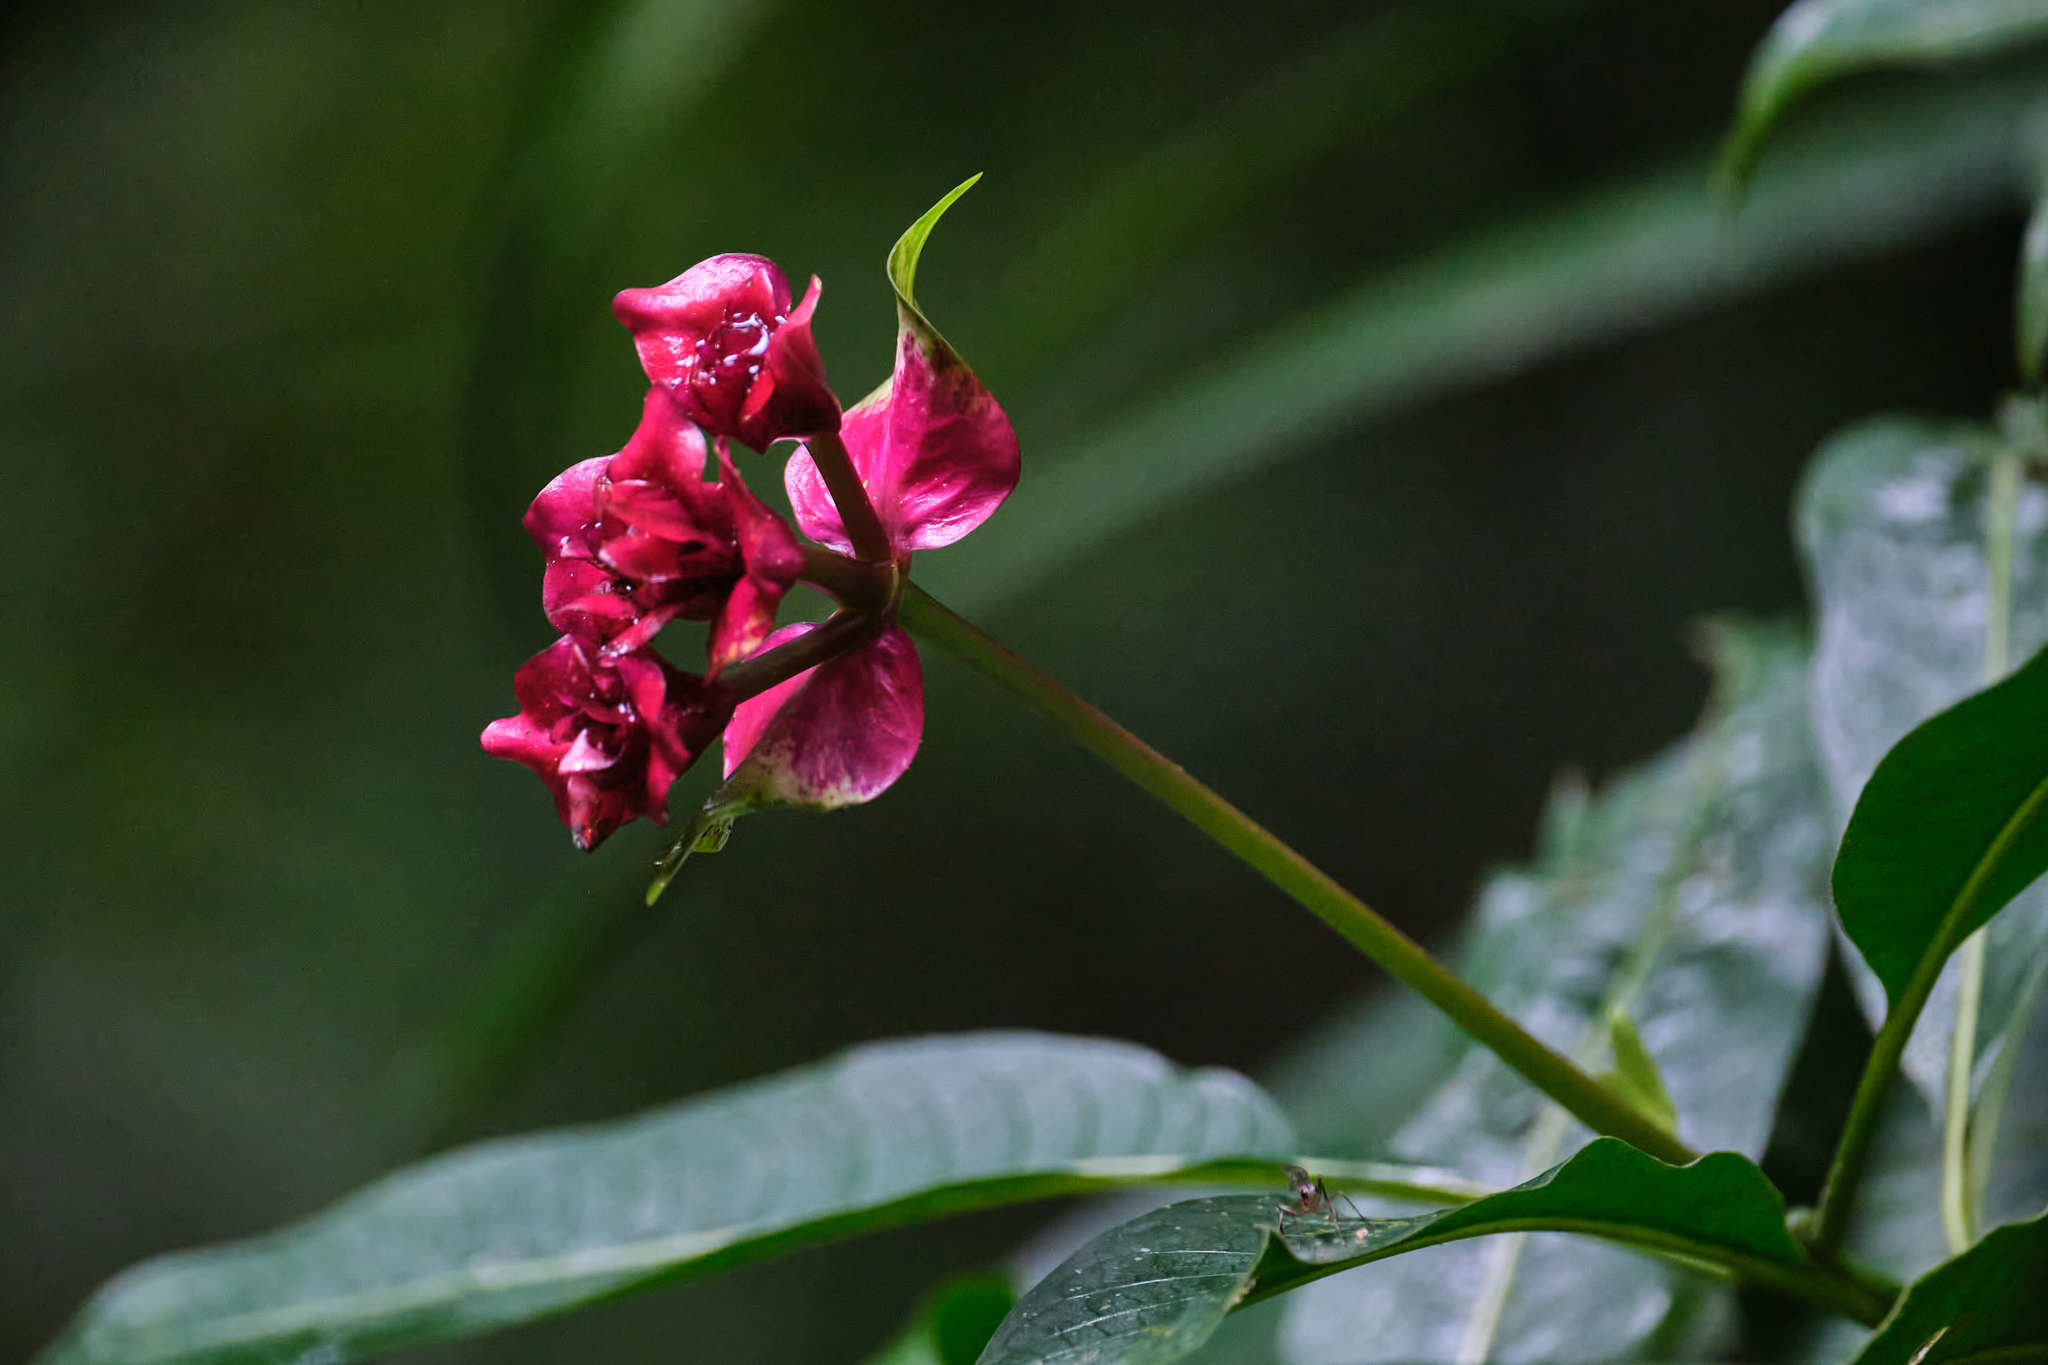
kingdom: Plantae
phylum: Tracheophyta
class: Magnoliopsida
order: Gentianales
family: Rubiaceae
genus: Palicourea
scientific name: Palicourea elata
